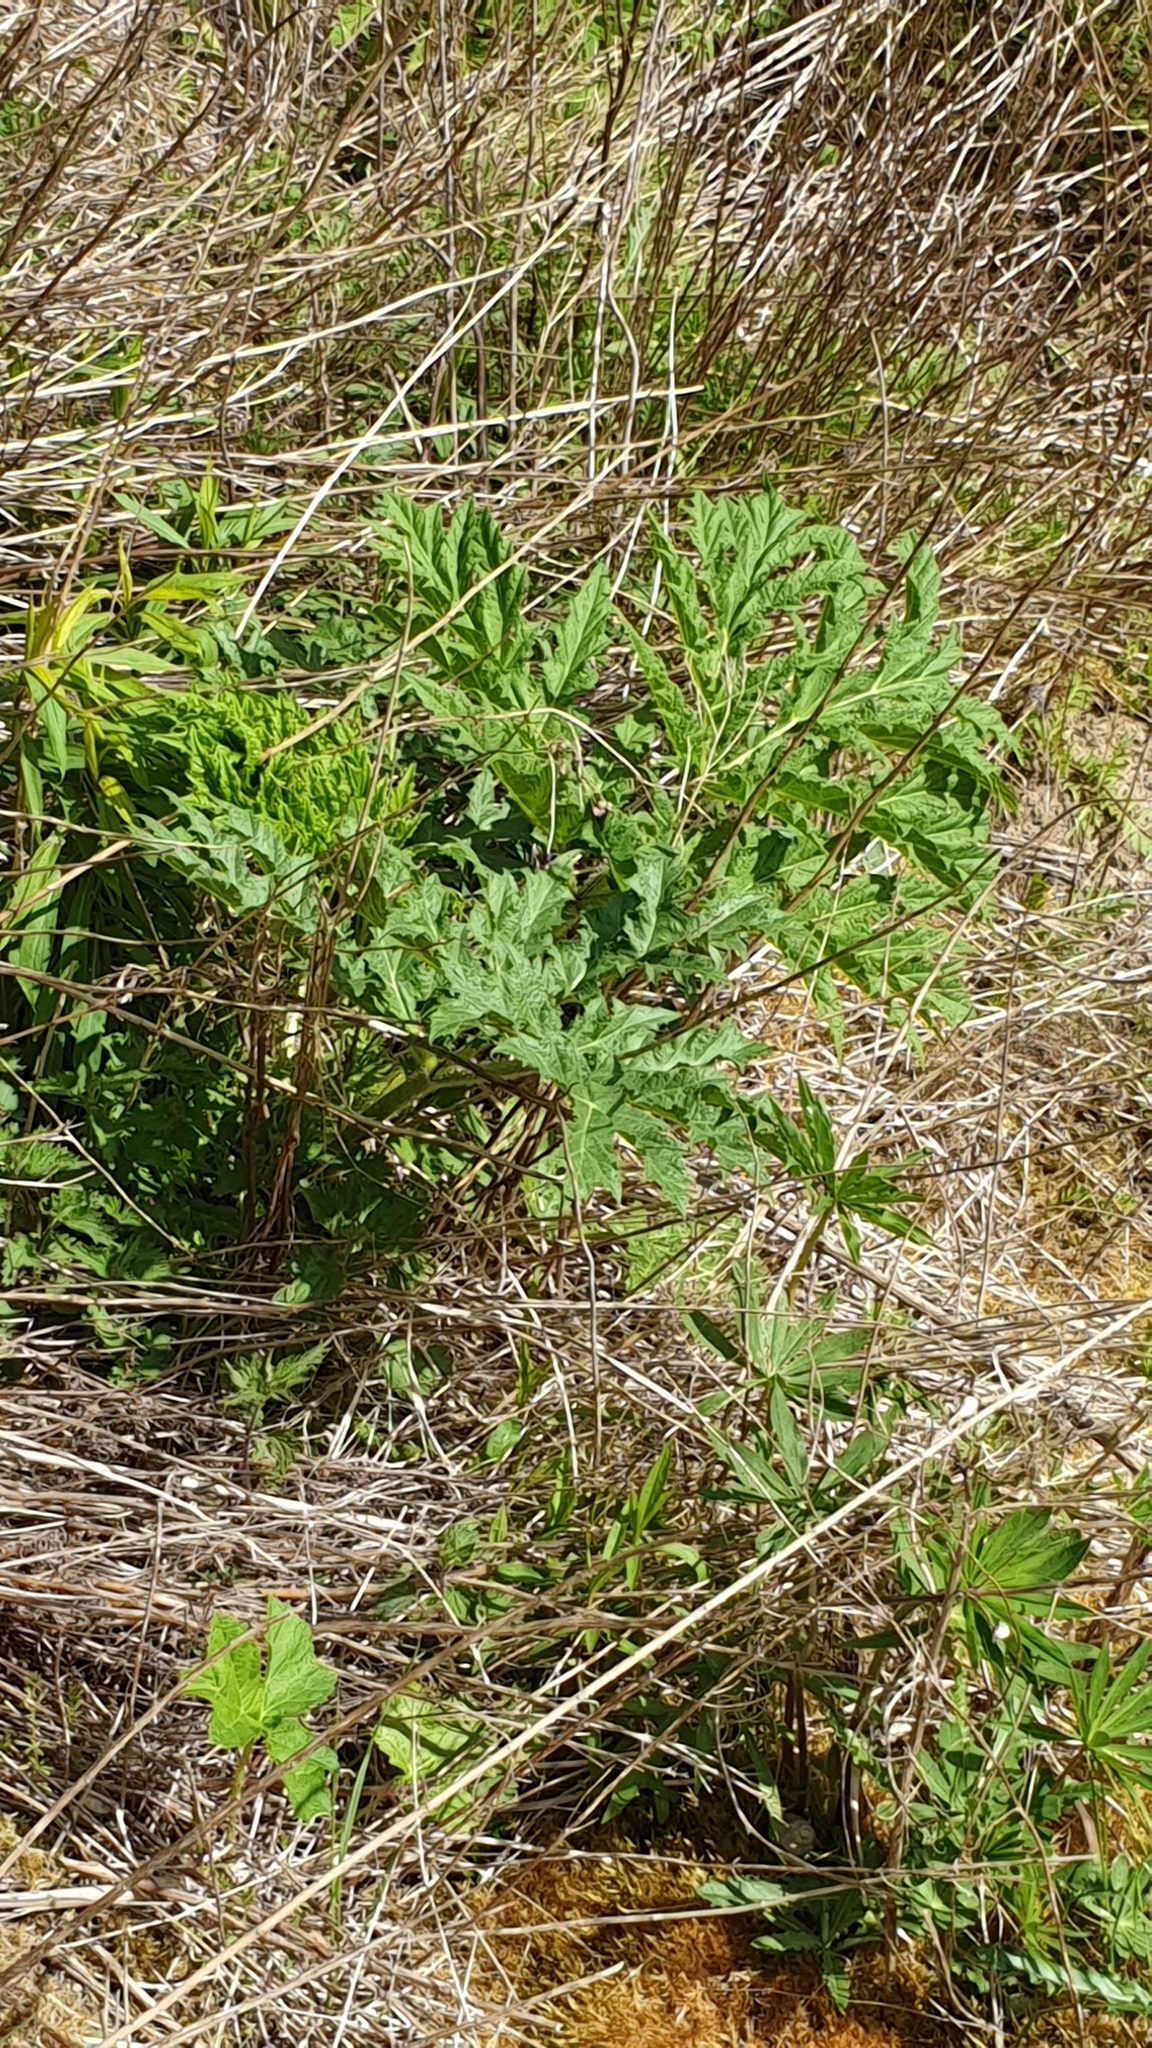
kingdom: Plantae
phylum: Tracheophyta
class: Magnoliopsida
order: Apiales
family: Apiaceae
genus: Heracleum
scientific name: Heracleum mantegazzianum
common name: Giant hogweed
